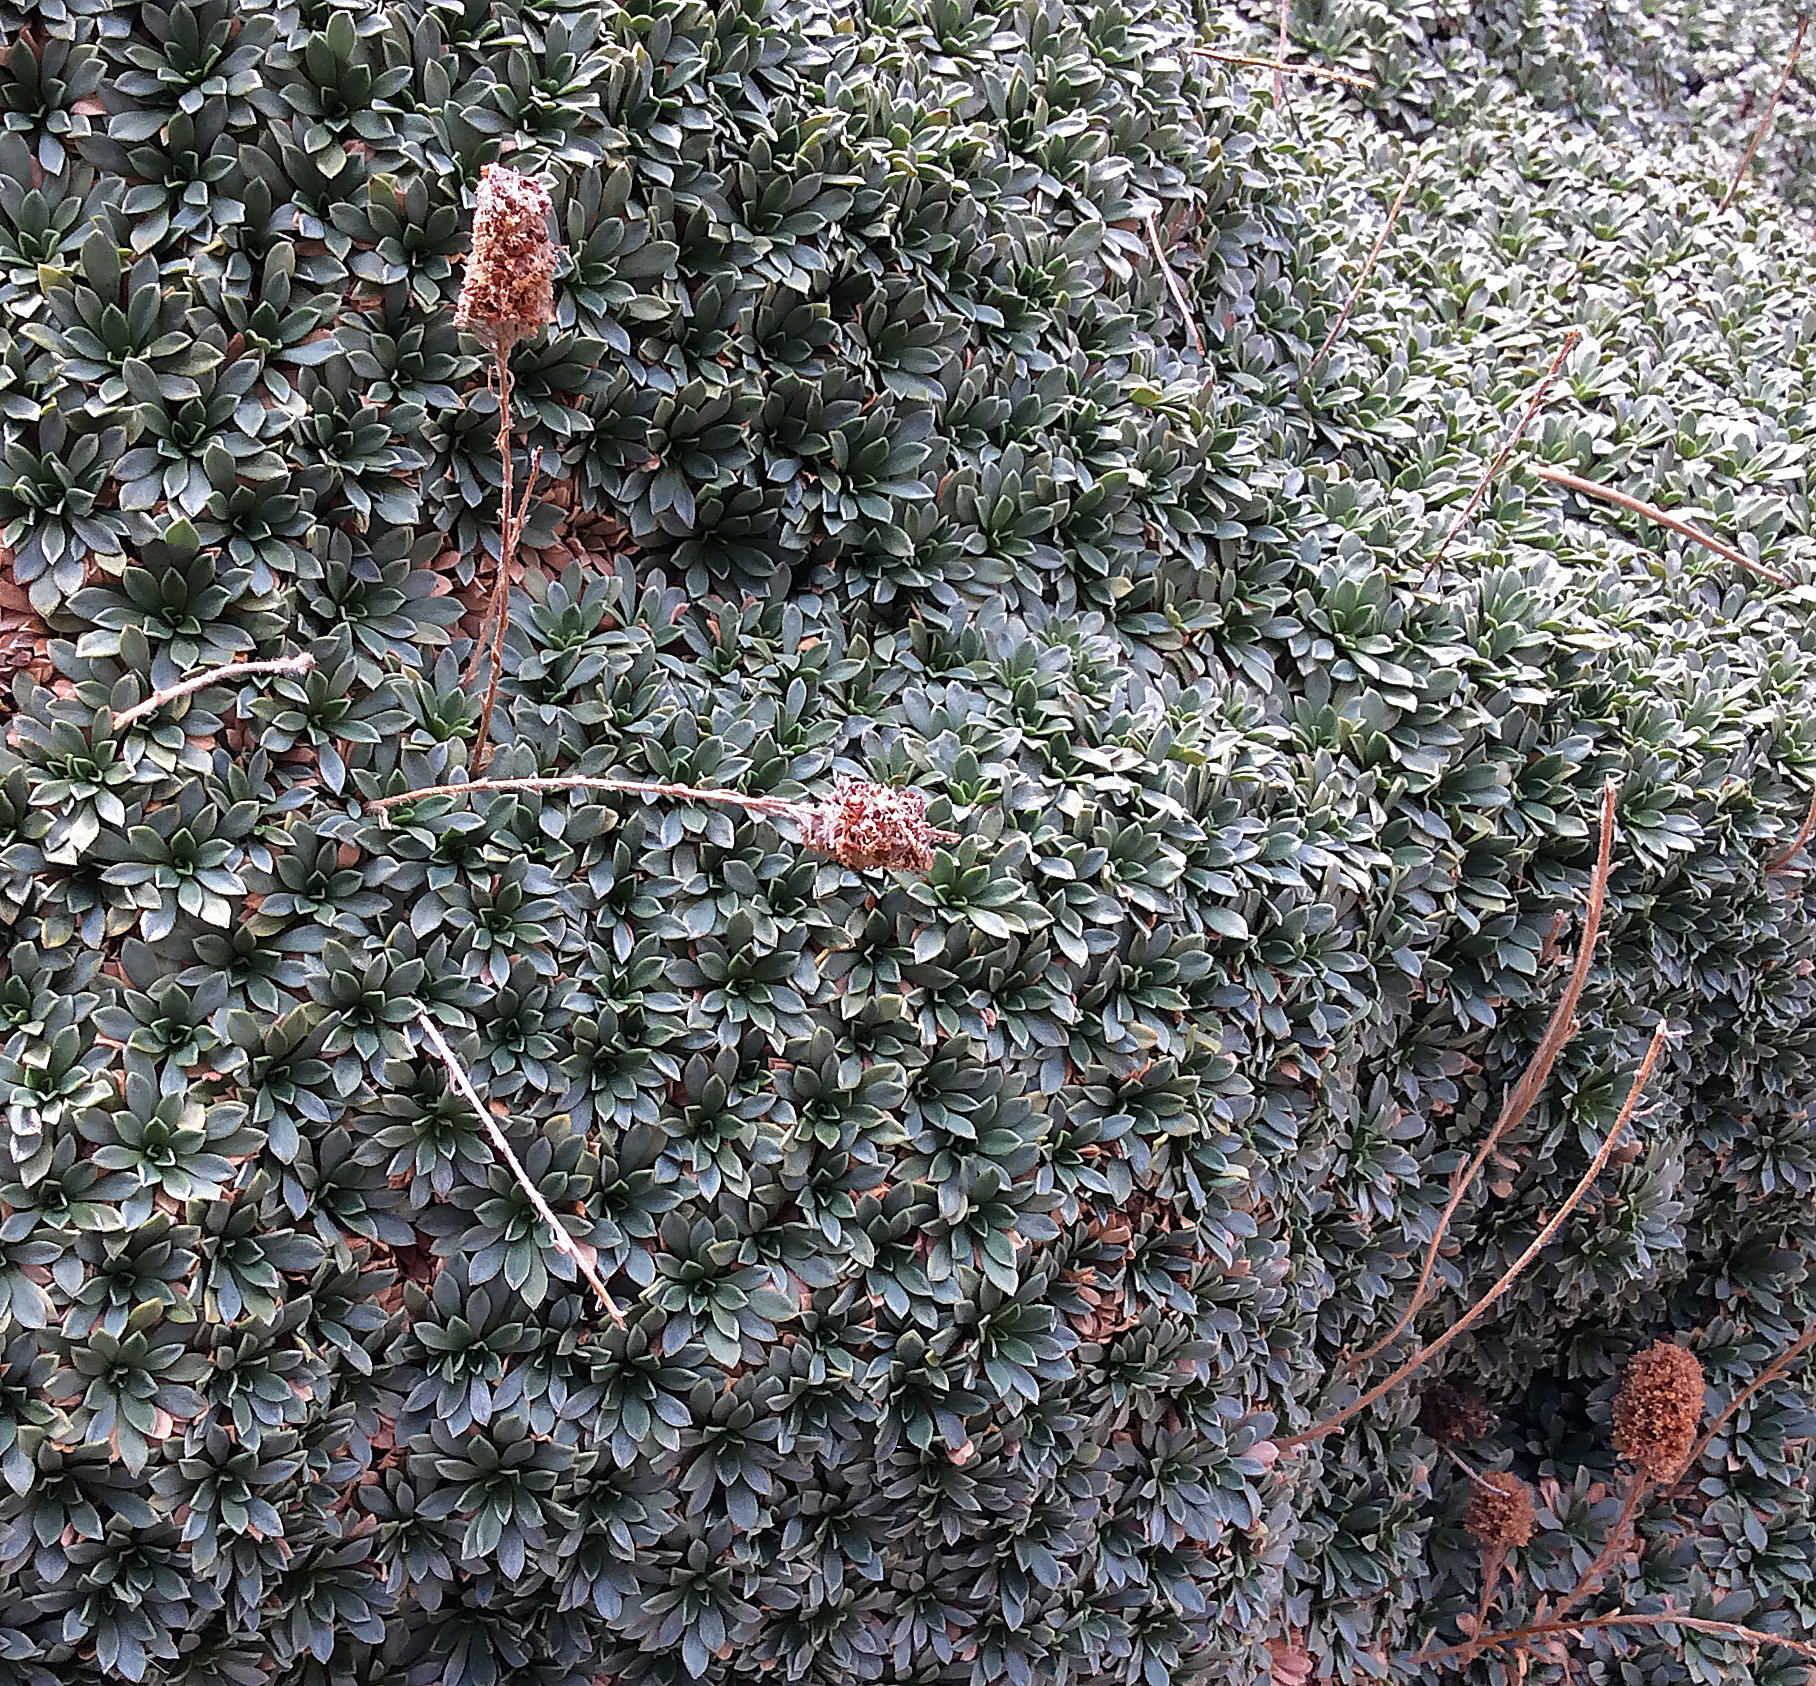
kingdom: Plantae
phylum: Tracheophyta
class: Magnoliopsida
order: Rosales
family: Rosaceae
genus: Petrophytum
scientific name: Petrophytum caespitosum
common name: Mat rockspirea
